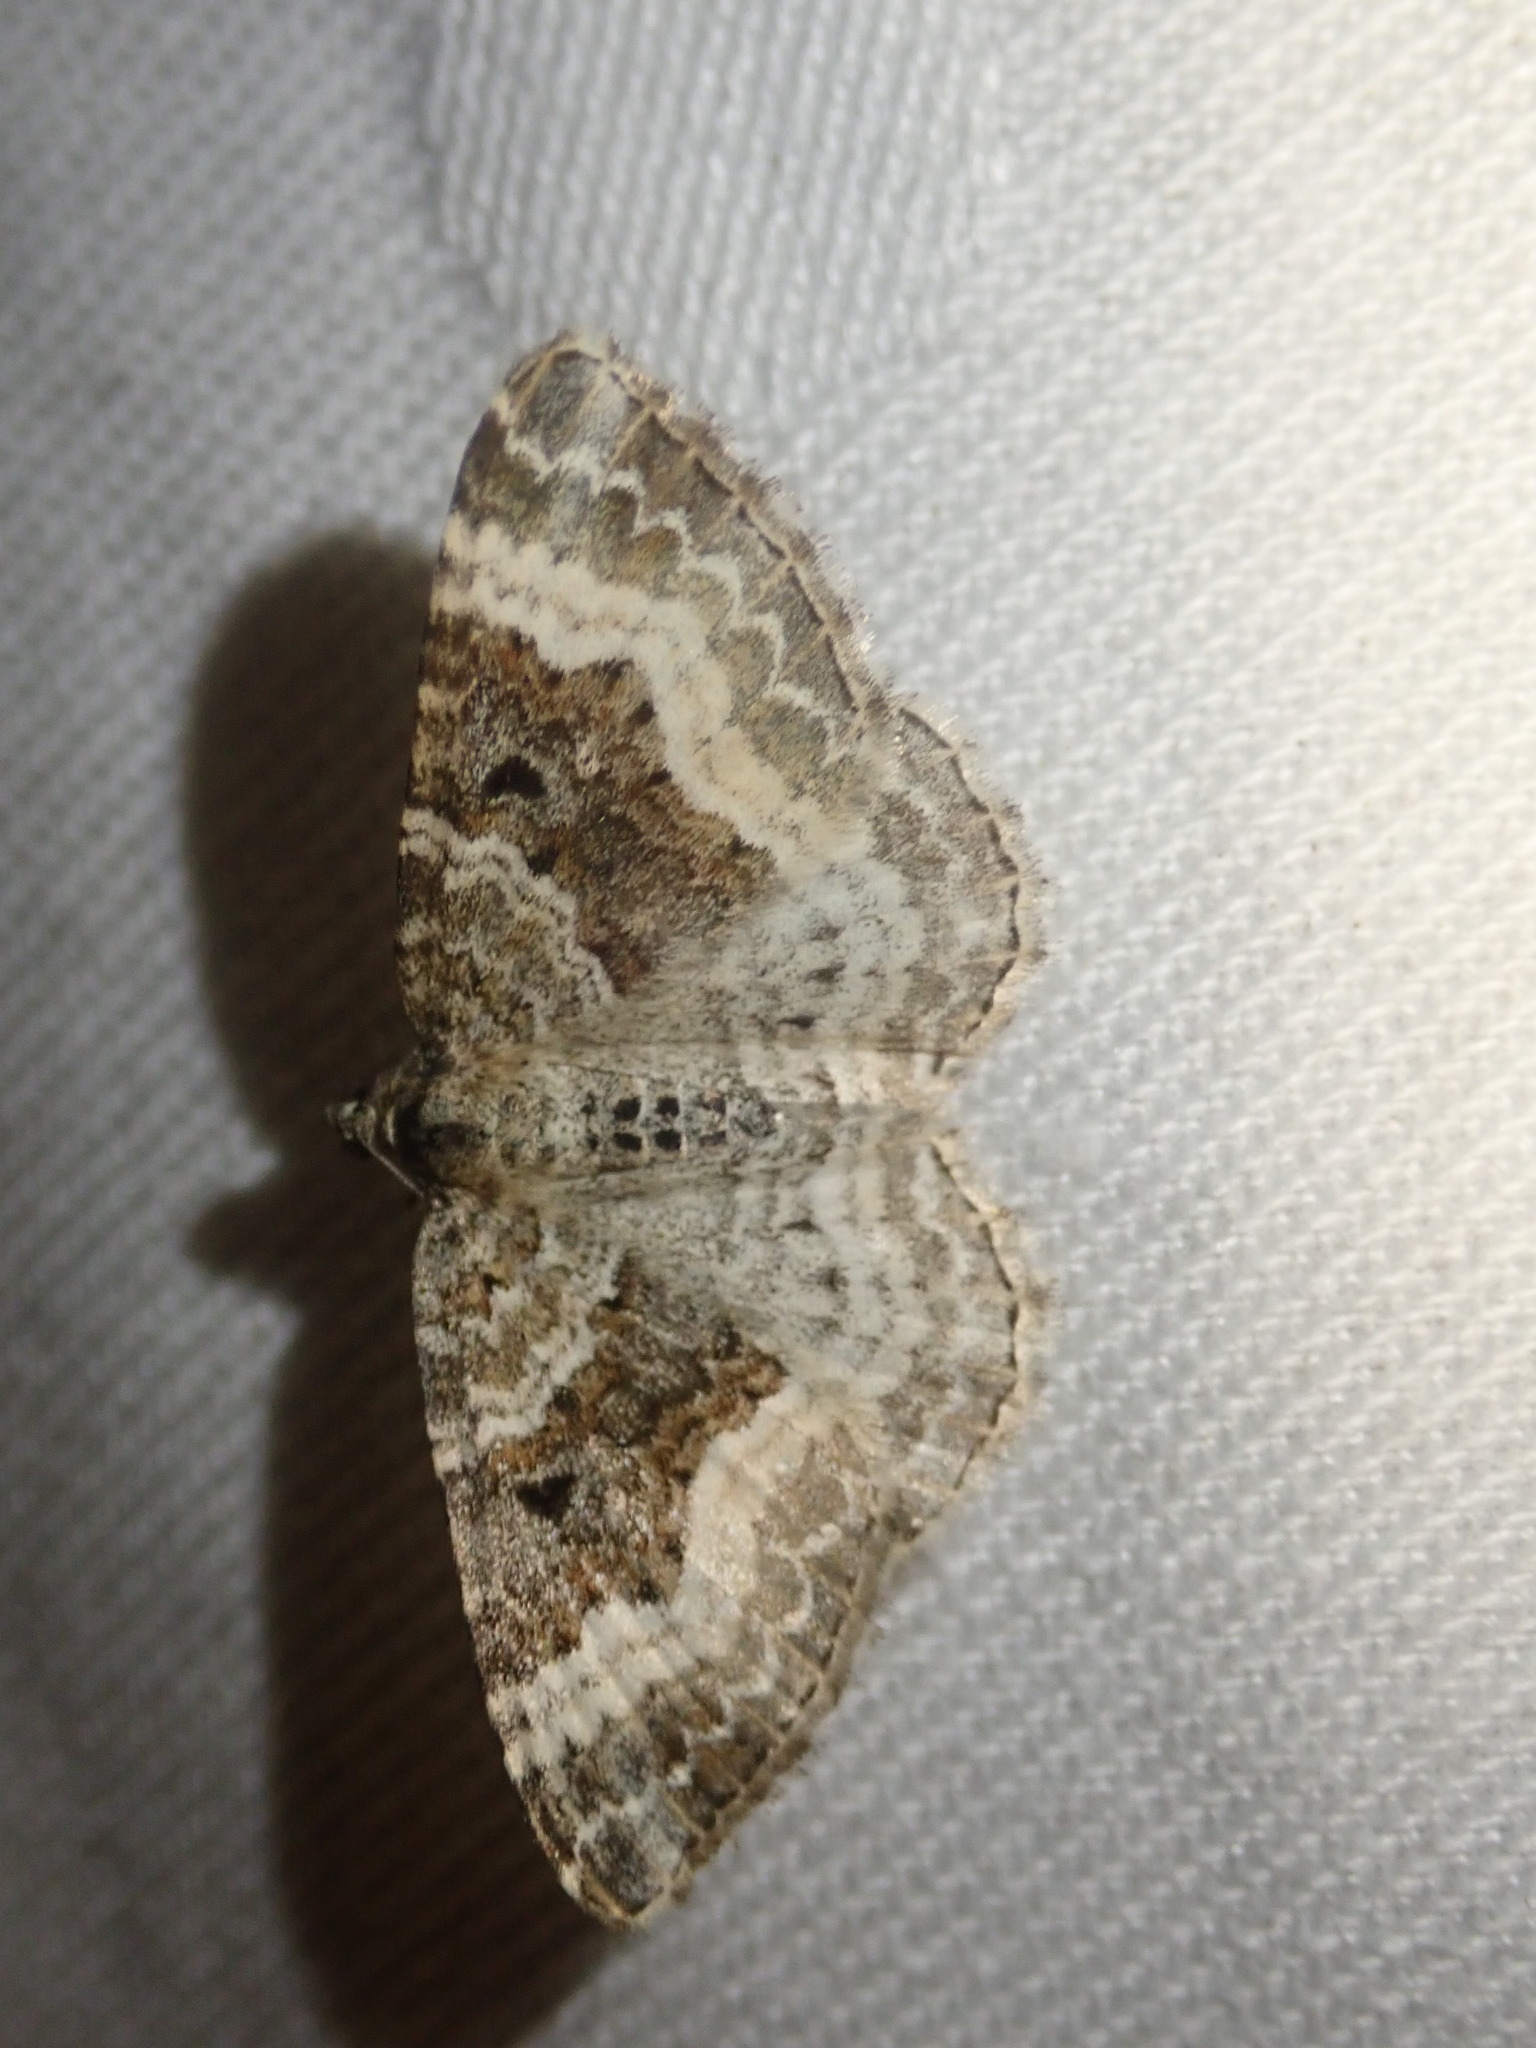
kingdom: Animalia
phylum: Arthropoda
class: Insecta
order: Lepidoptera
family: Geometridae
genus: Epirrhoe
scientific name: Epirrhoe alternata
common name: Common carpet
